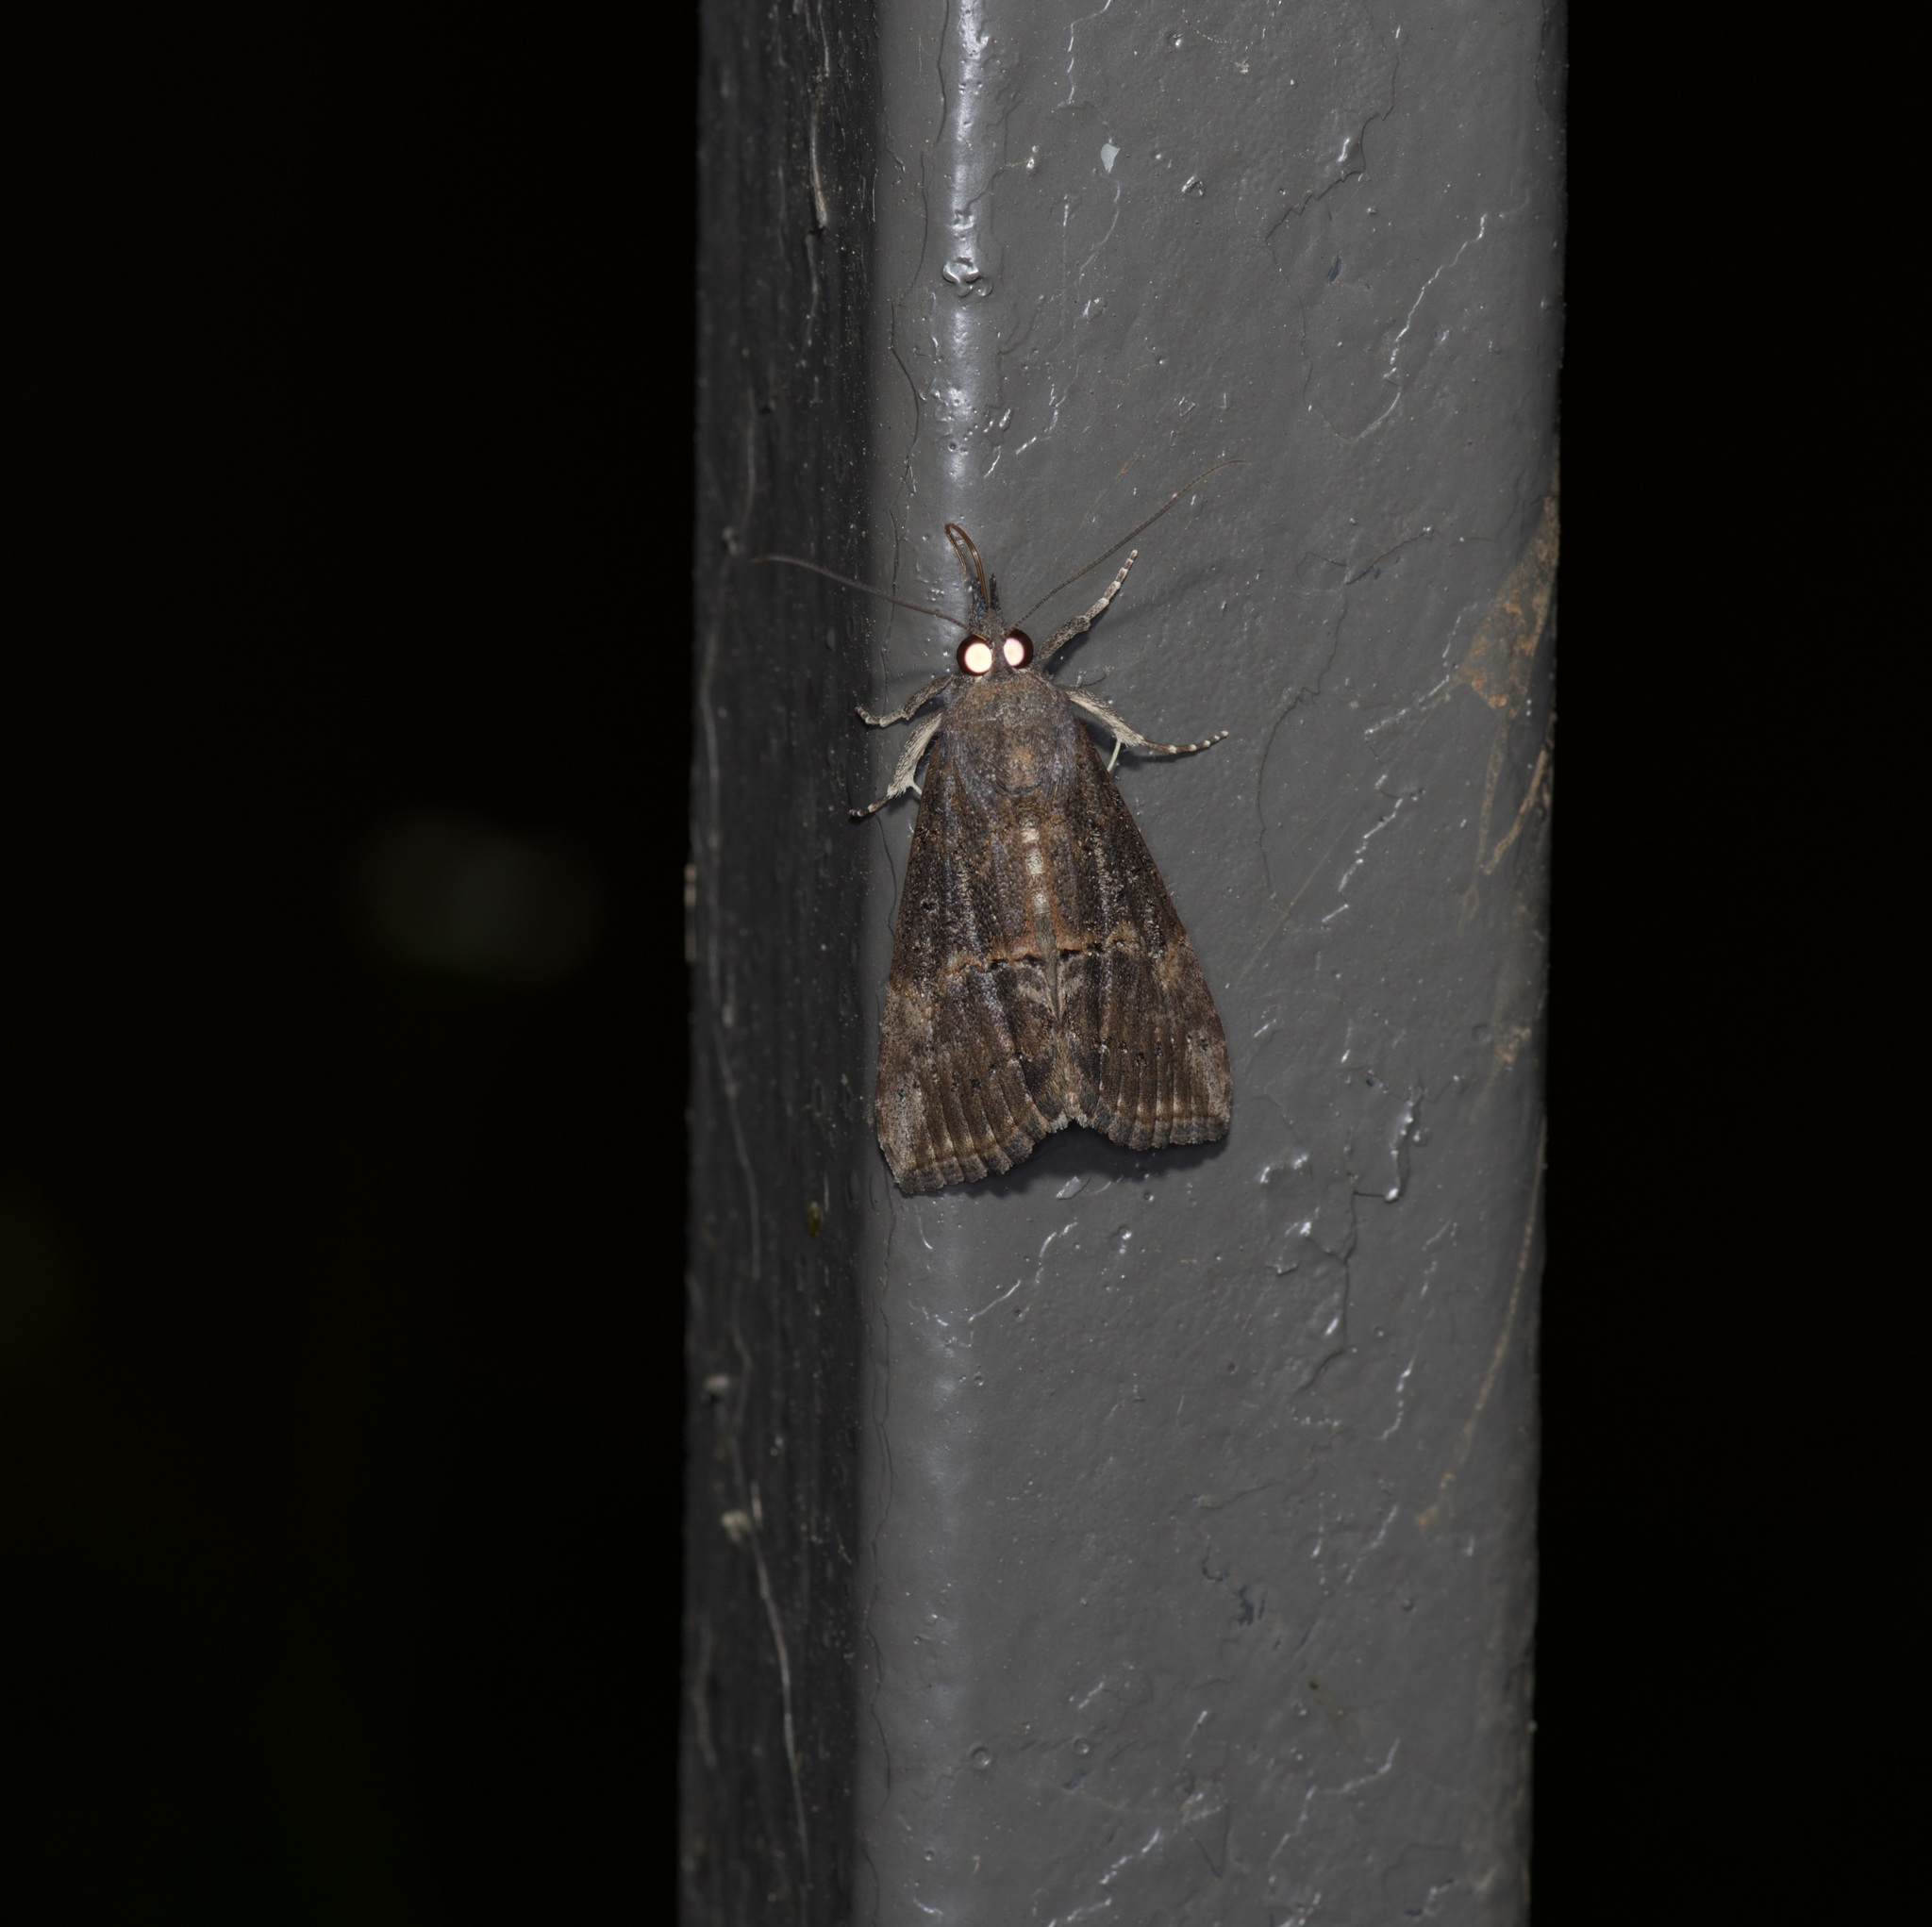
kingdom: Animalia
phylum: Arthropoda
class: Insecta
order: Lepidoptera
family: Erebidae
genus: Hypena
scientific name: Hypena scabra
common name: Green cloverworm
